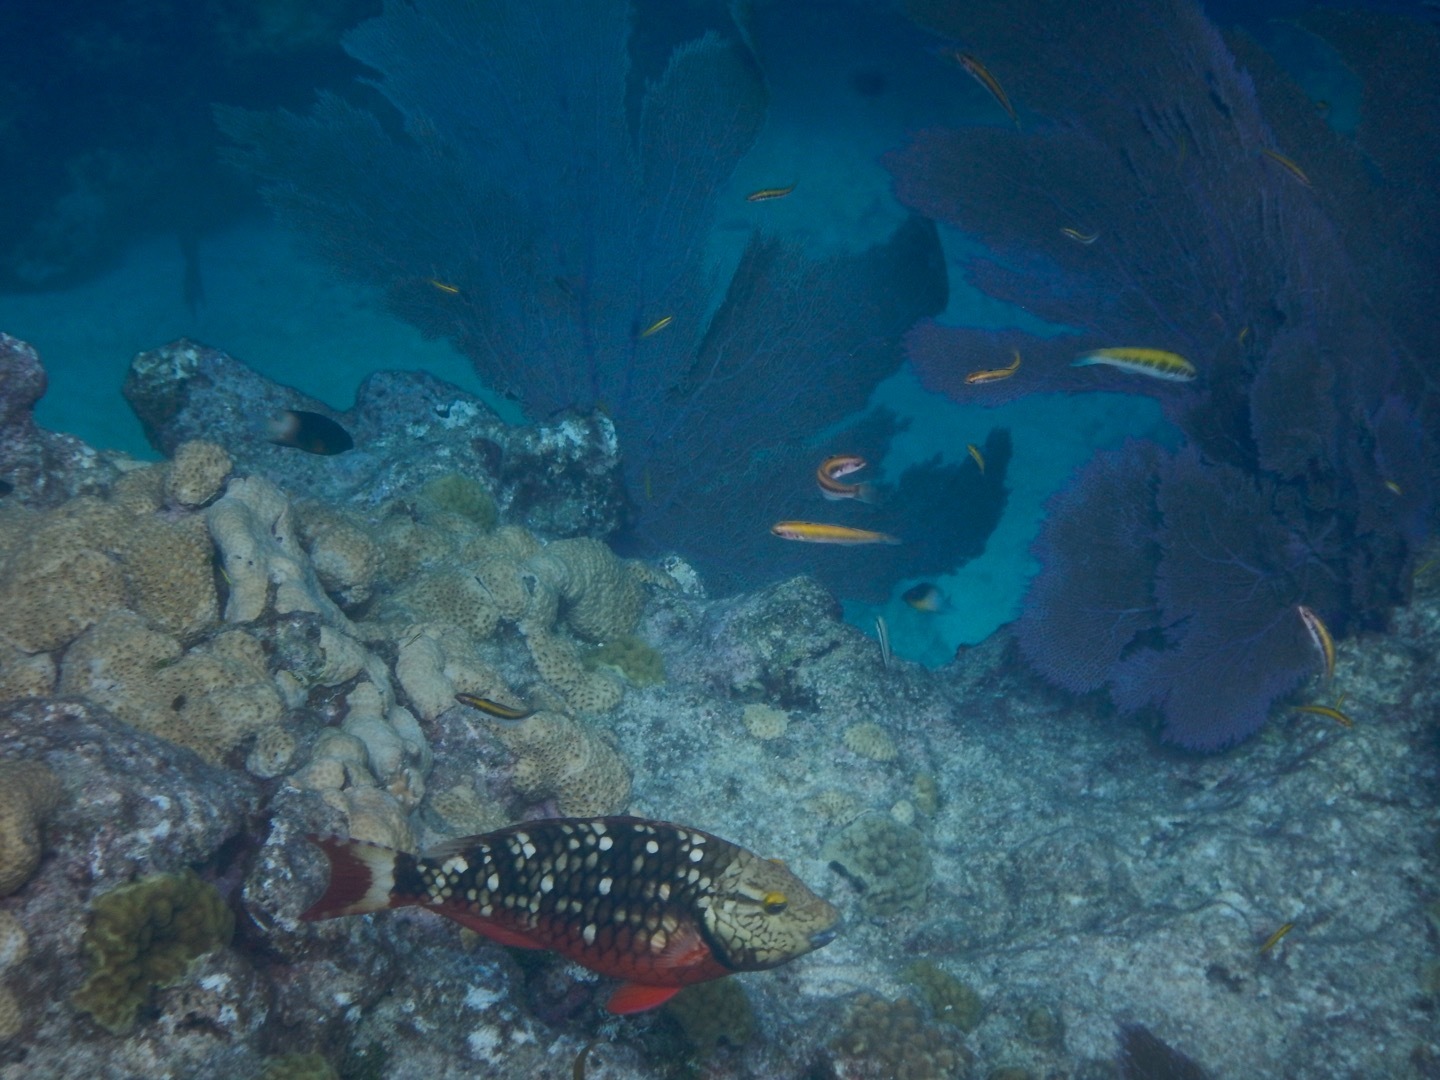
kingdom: Animalia
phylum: Chordata
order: Perciformes
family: Scaridae
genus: Sparisoma
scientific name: Sparisoma viride
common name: Stoplight parrotfish
